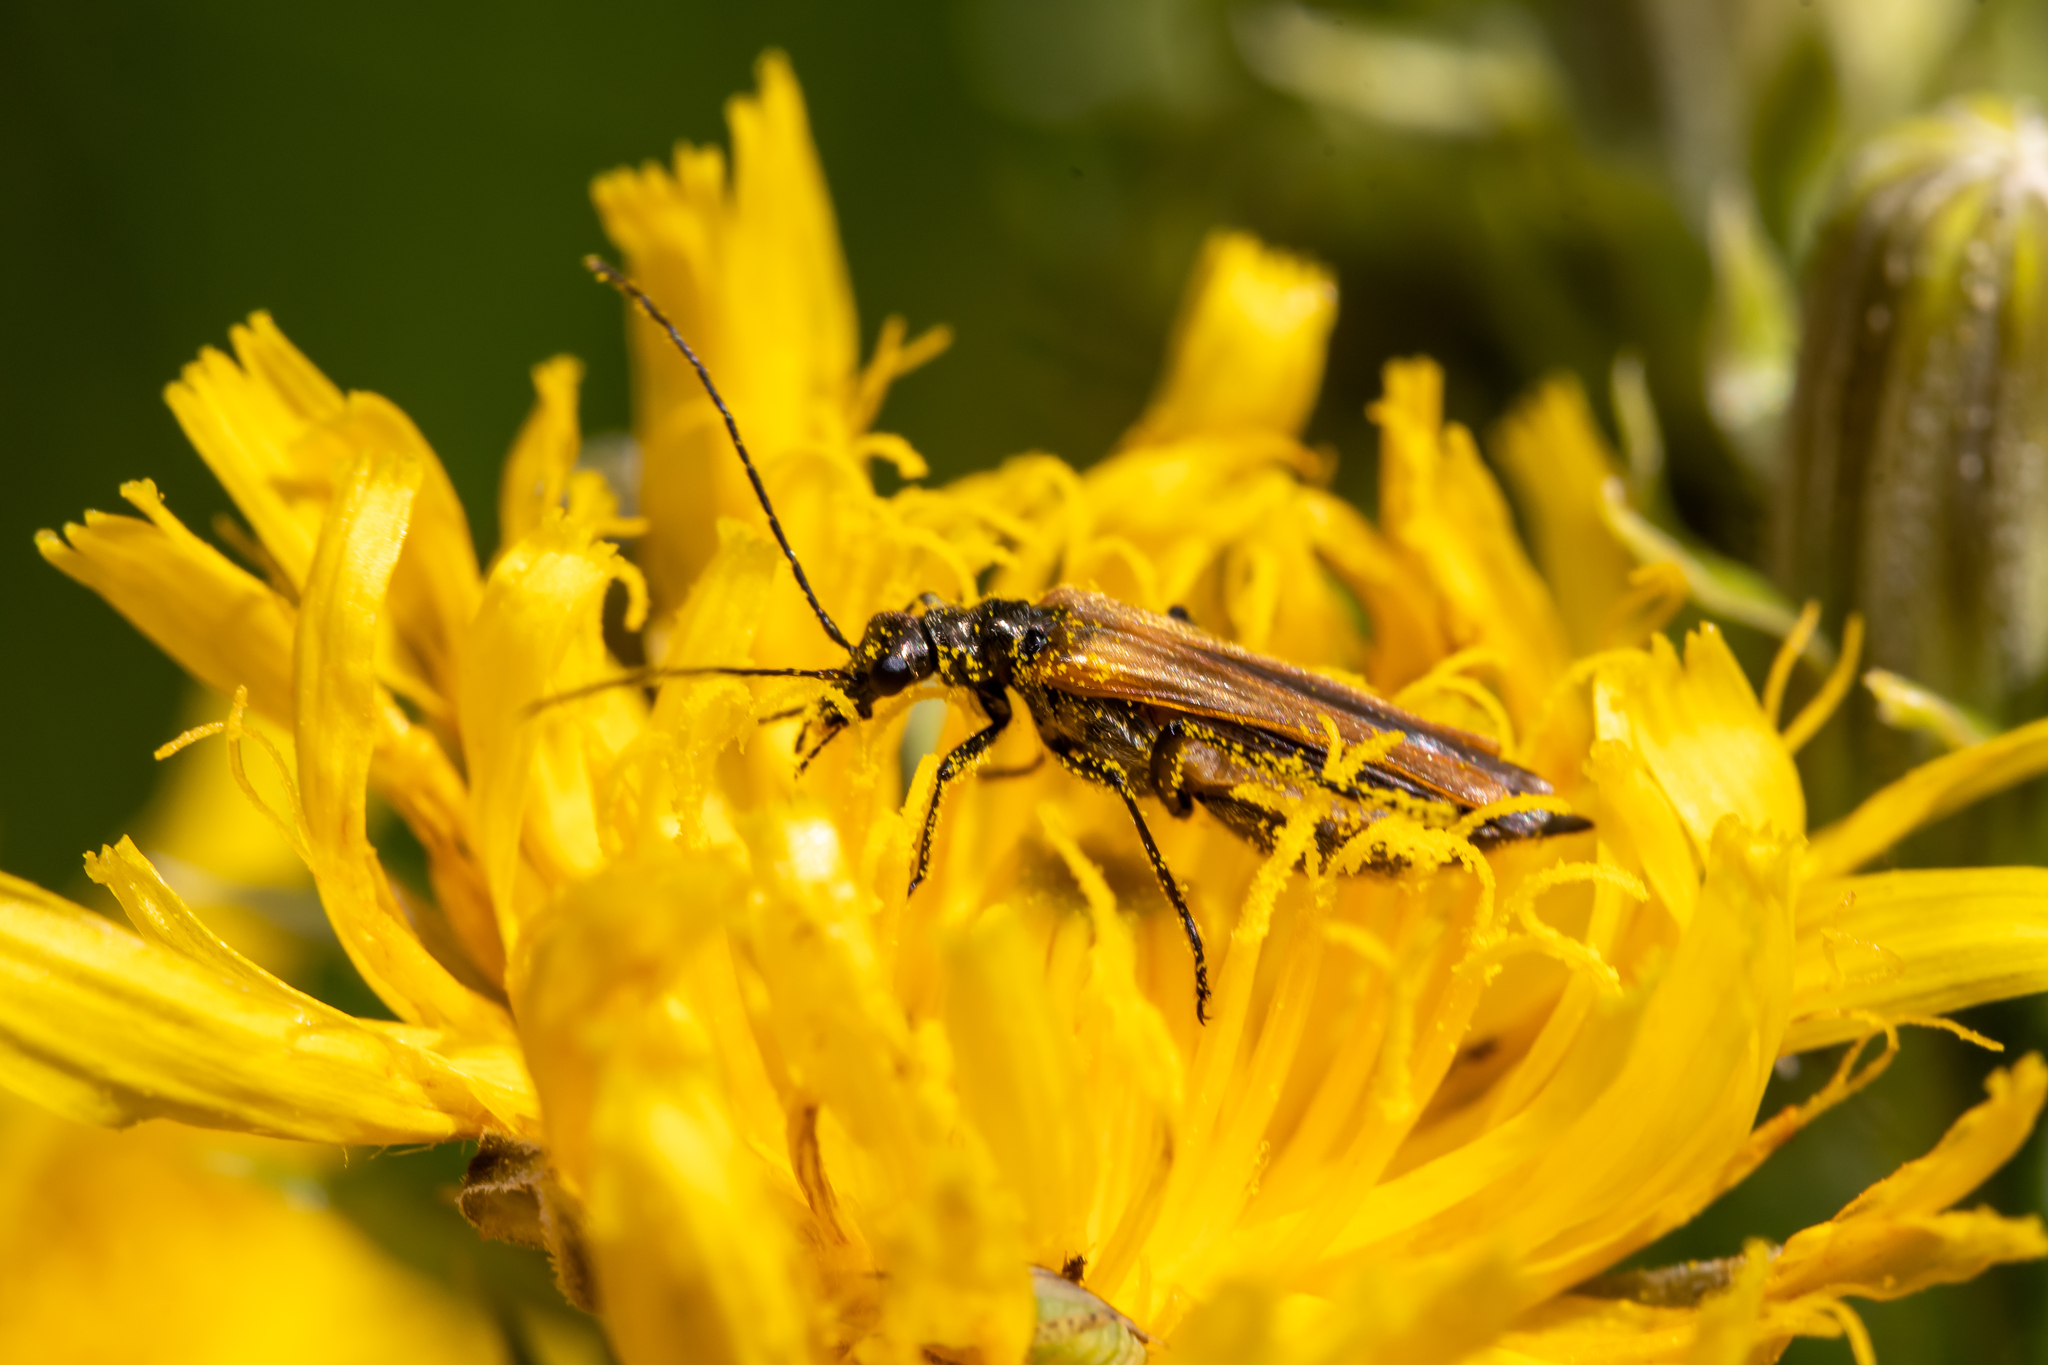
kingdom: Animalia
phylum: Arthropoda
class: Insecta
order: Coleoptera
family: Oedemeridae
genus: Oedemera
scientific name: Oedemera femorata
